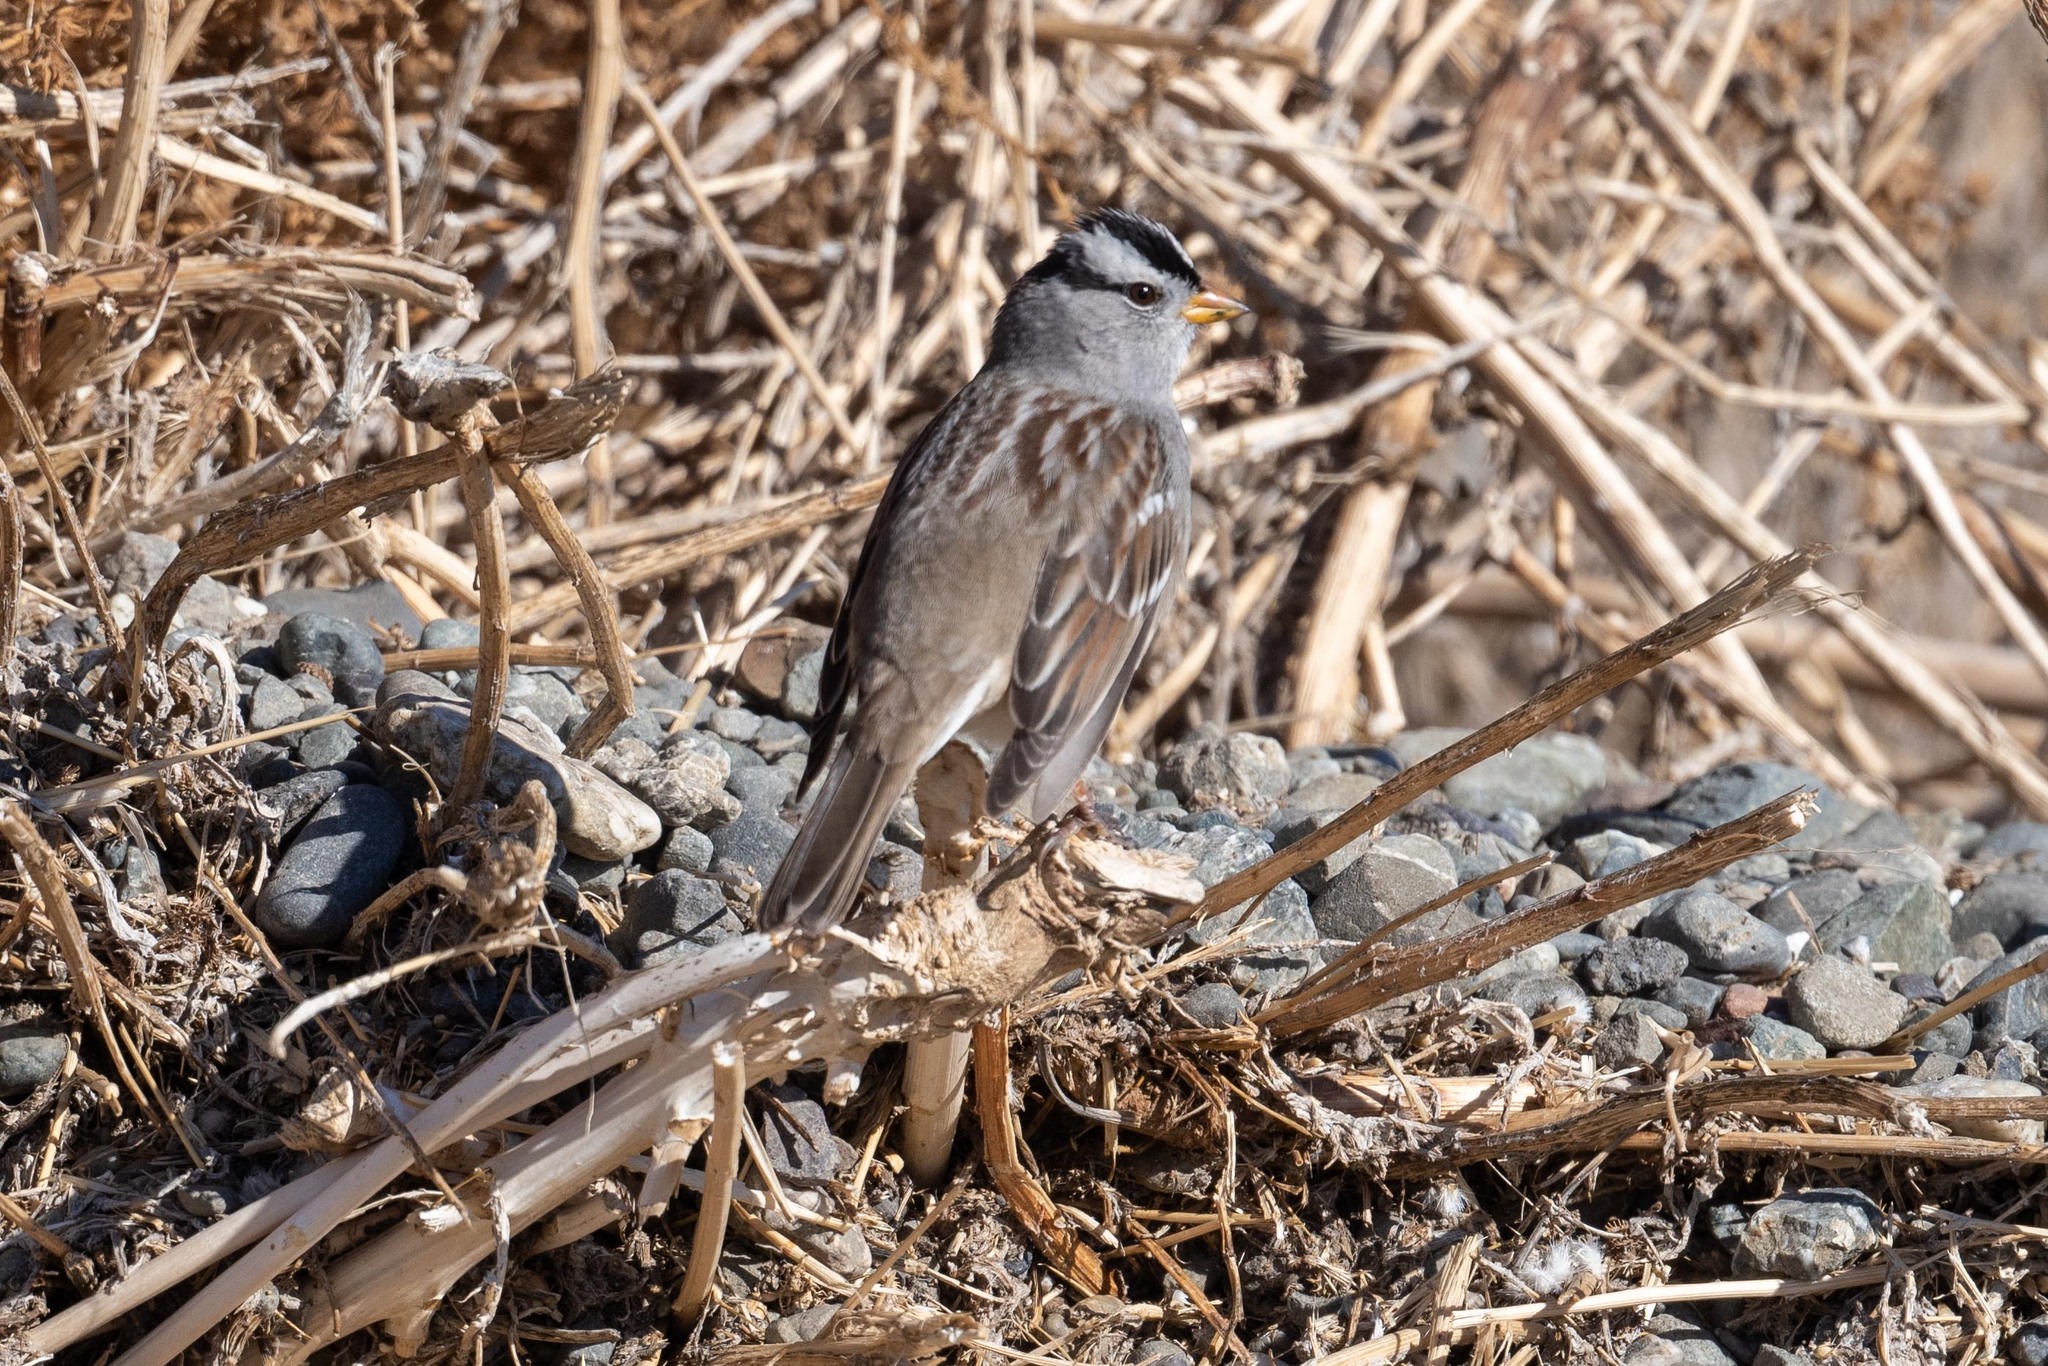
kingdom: Animalia
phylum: Chordata
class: Aves
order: Passeriformes
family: Passerellidae
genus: Zonotrichia
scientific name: Zonotrichia leucophrys
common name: White-crowned sparrow
